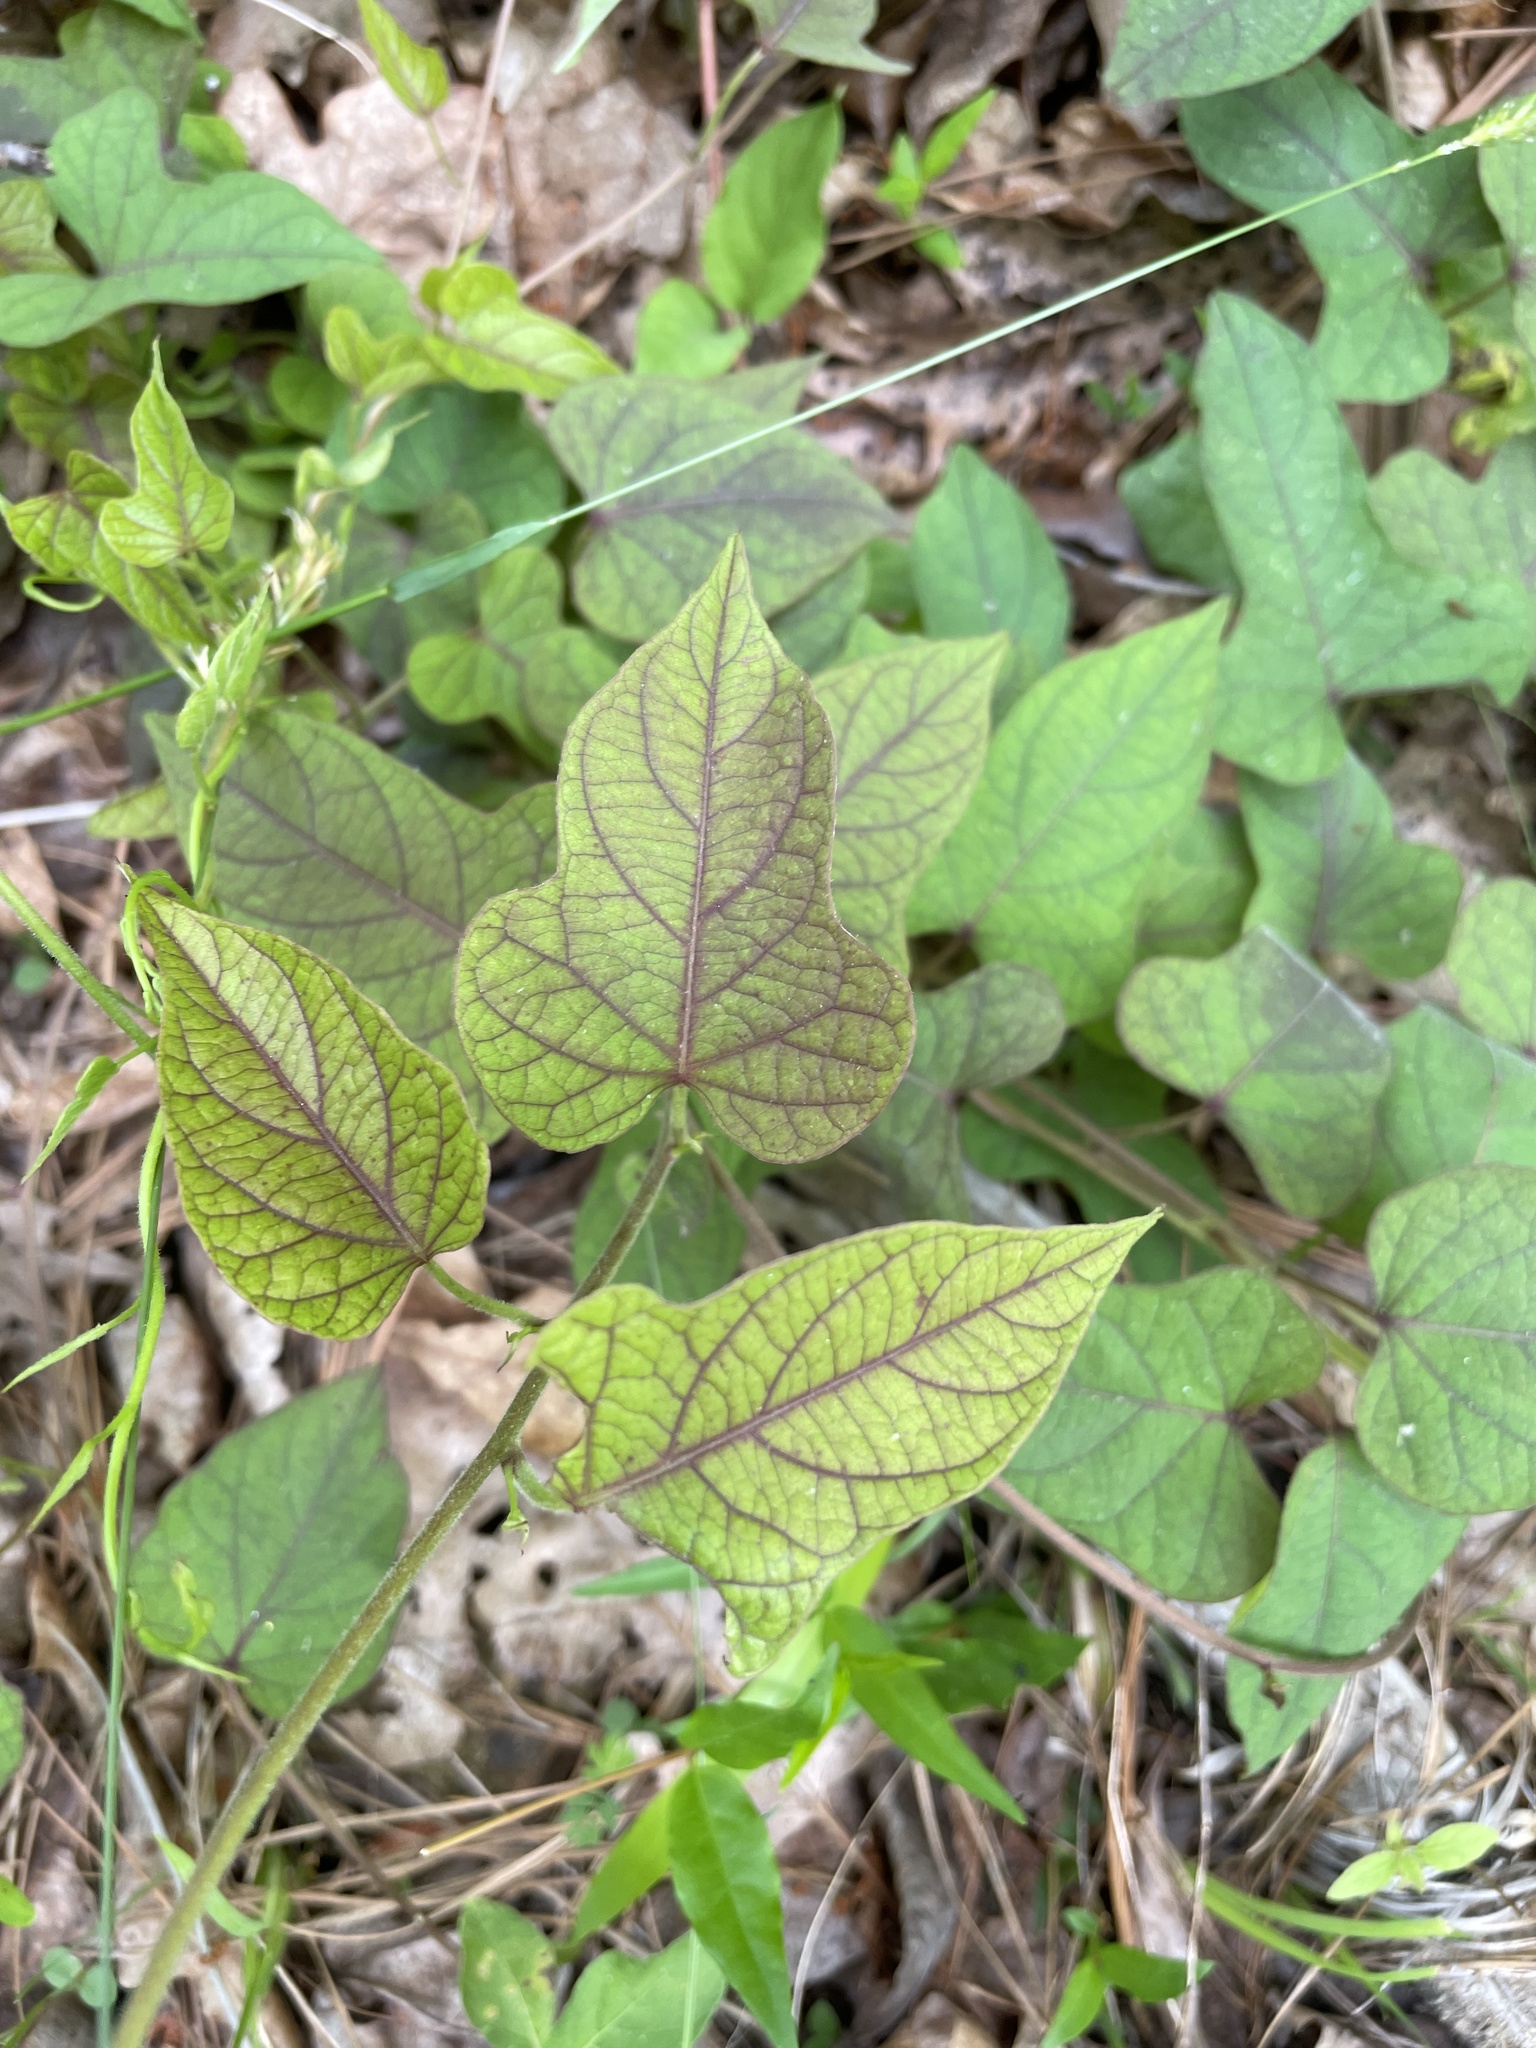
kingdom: Plantae
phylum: Tracheophyta
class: Magnoliopsida
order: Solanales
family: Convolvulaceae
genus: Ipomoea
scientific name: Ipomoea pandurata
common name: Man-of-the-earth
